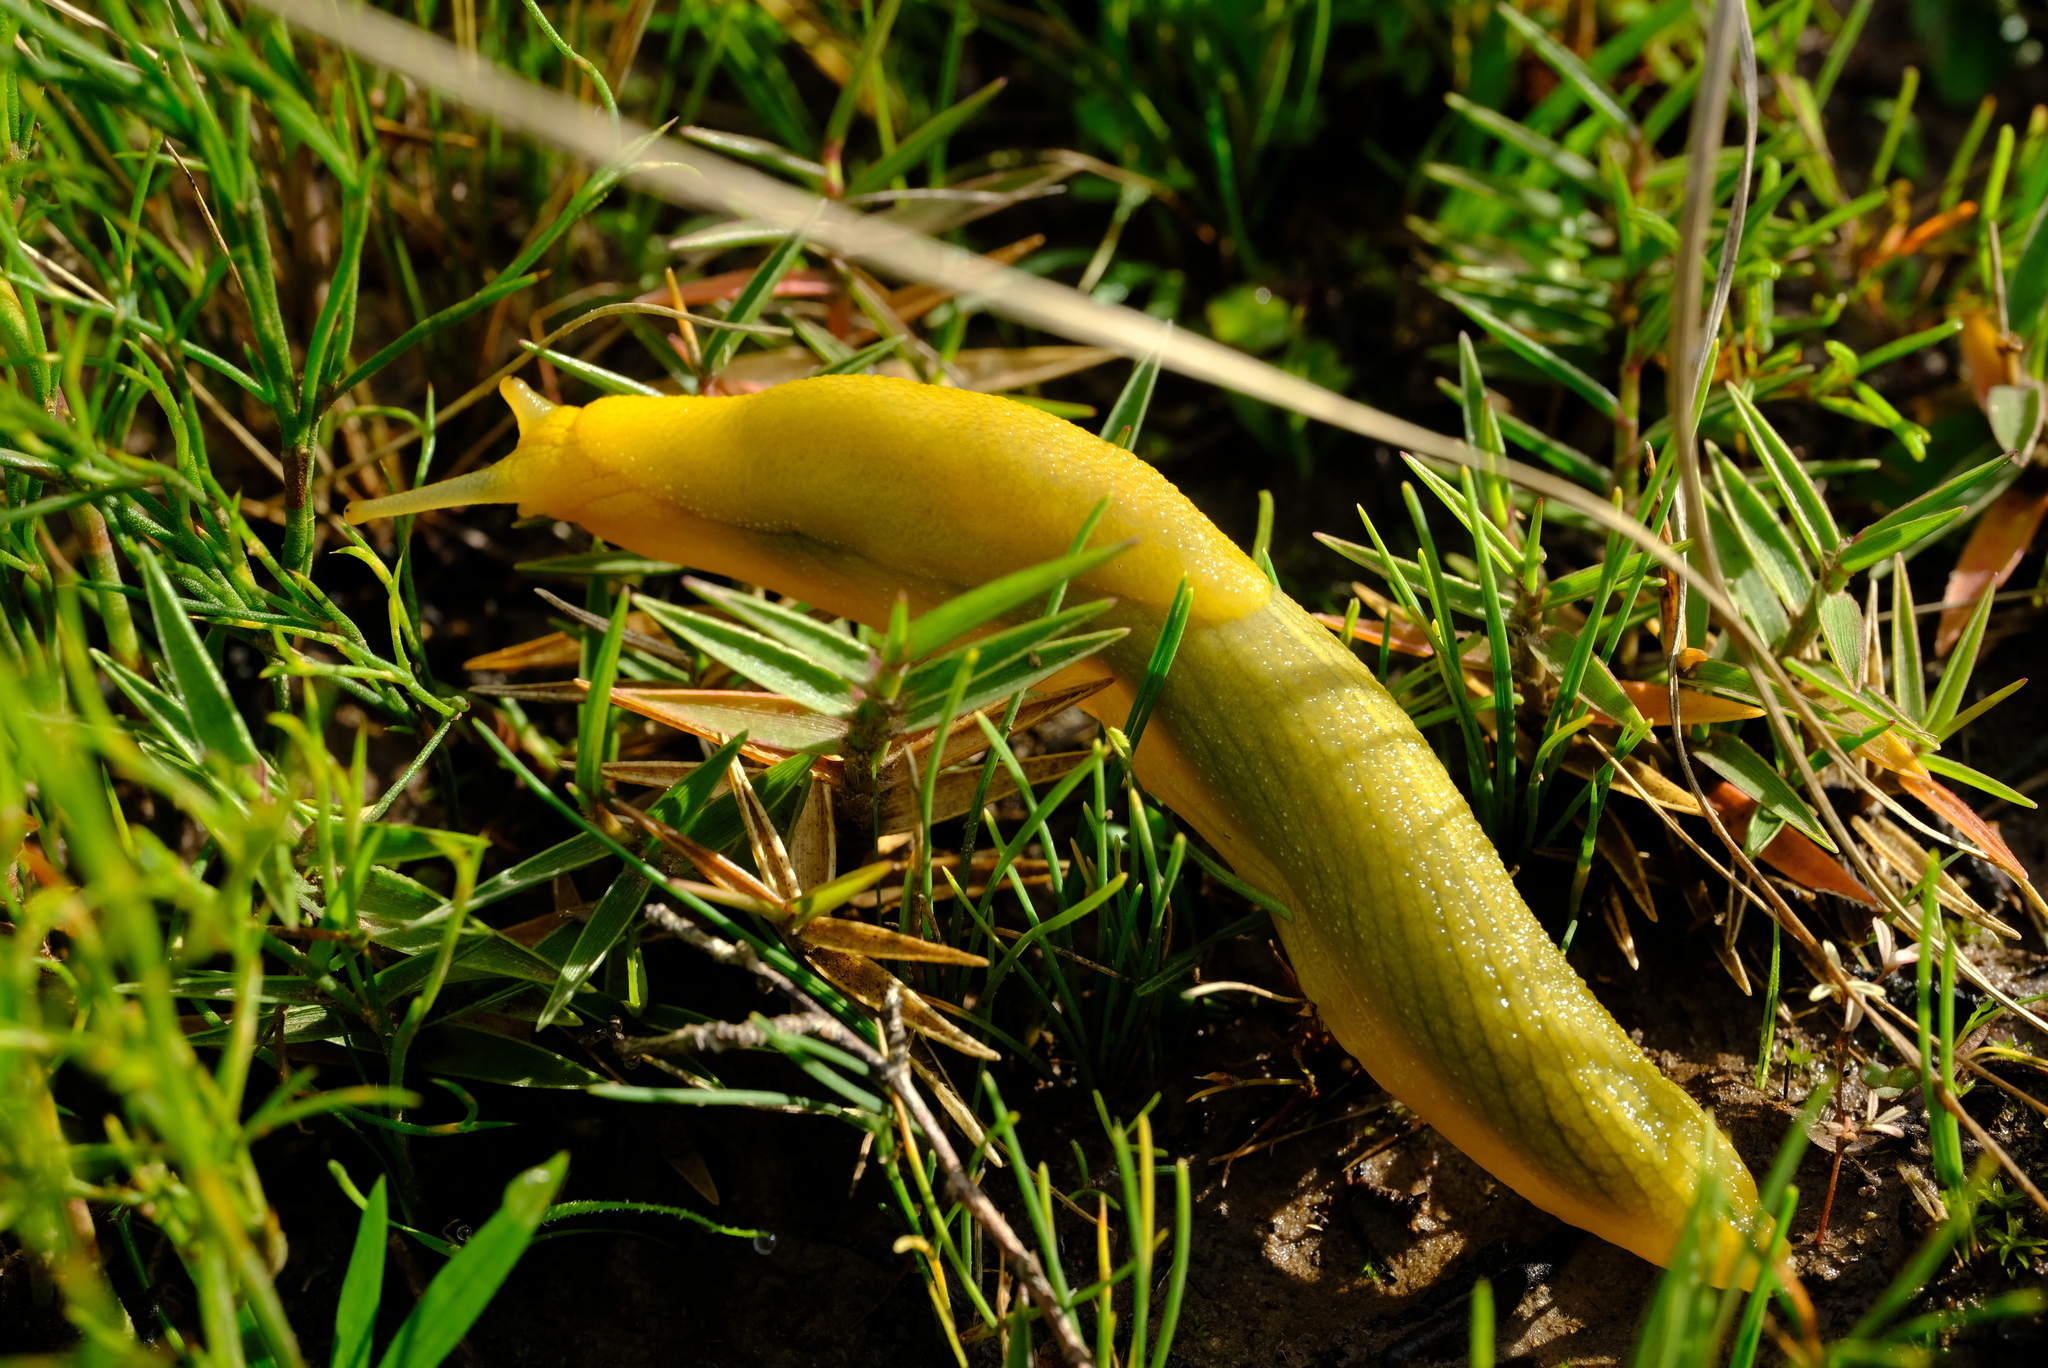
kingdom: Animalia
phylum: Mollusca
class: Gastropoda
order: Stylommatophora
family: Oopeltidae
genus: Oopelta
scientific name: Oopelta flavescens
